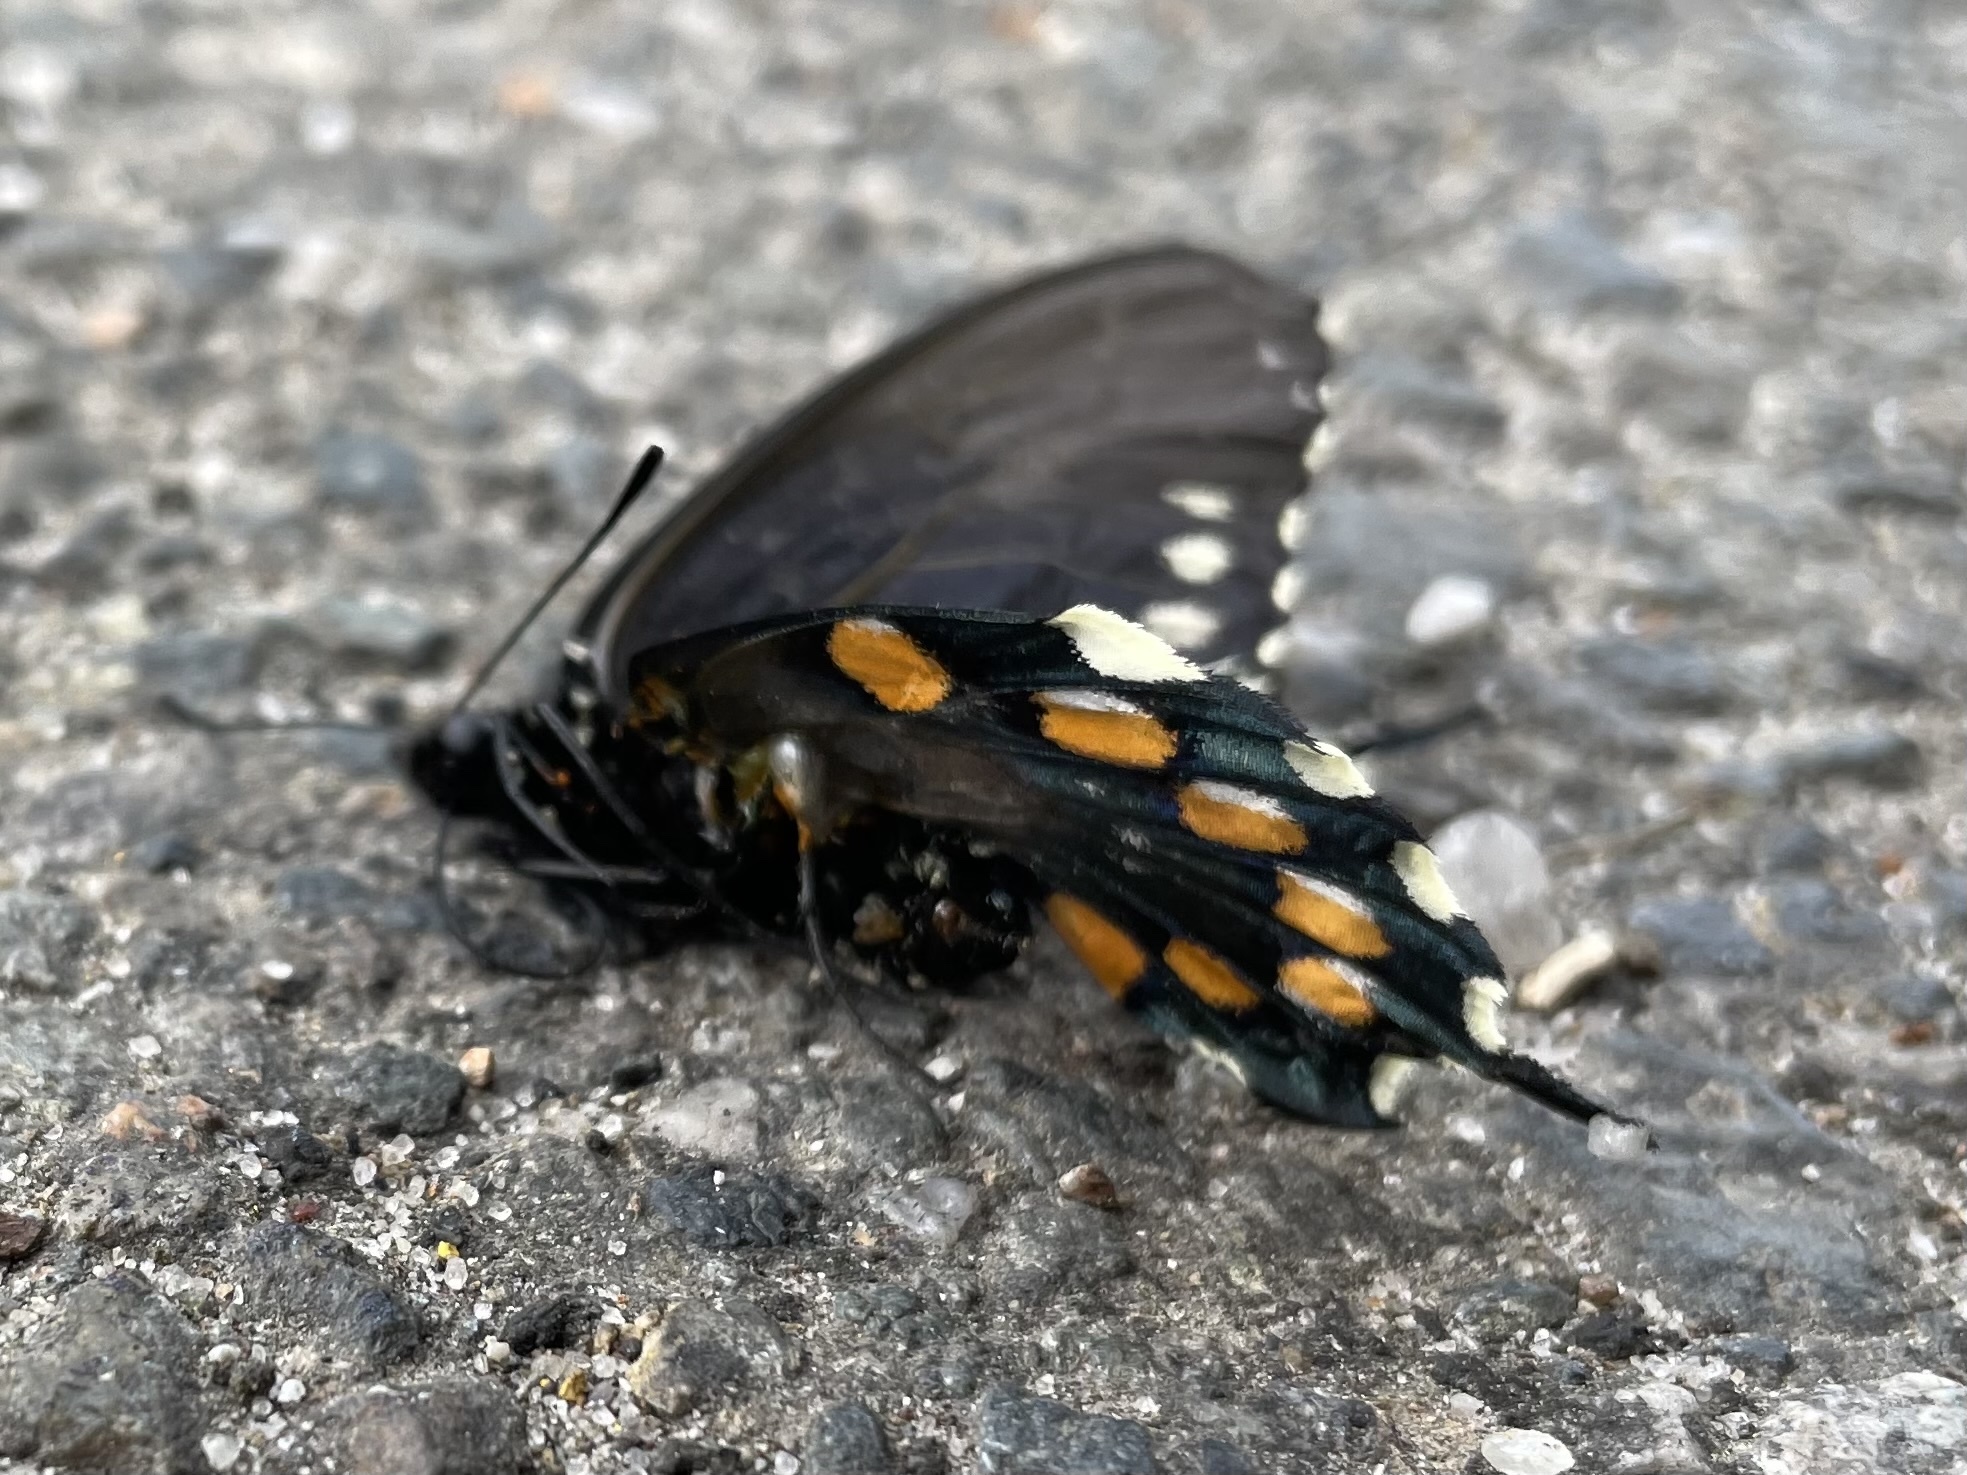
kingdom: Animalia
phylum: Arthropoda
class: Insecta
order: Lepidoptera
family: Papilionidae
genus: Battus
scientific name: Battus philenor
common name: Pipevine swallowtail
